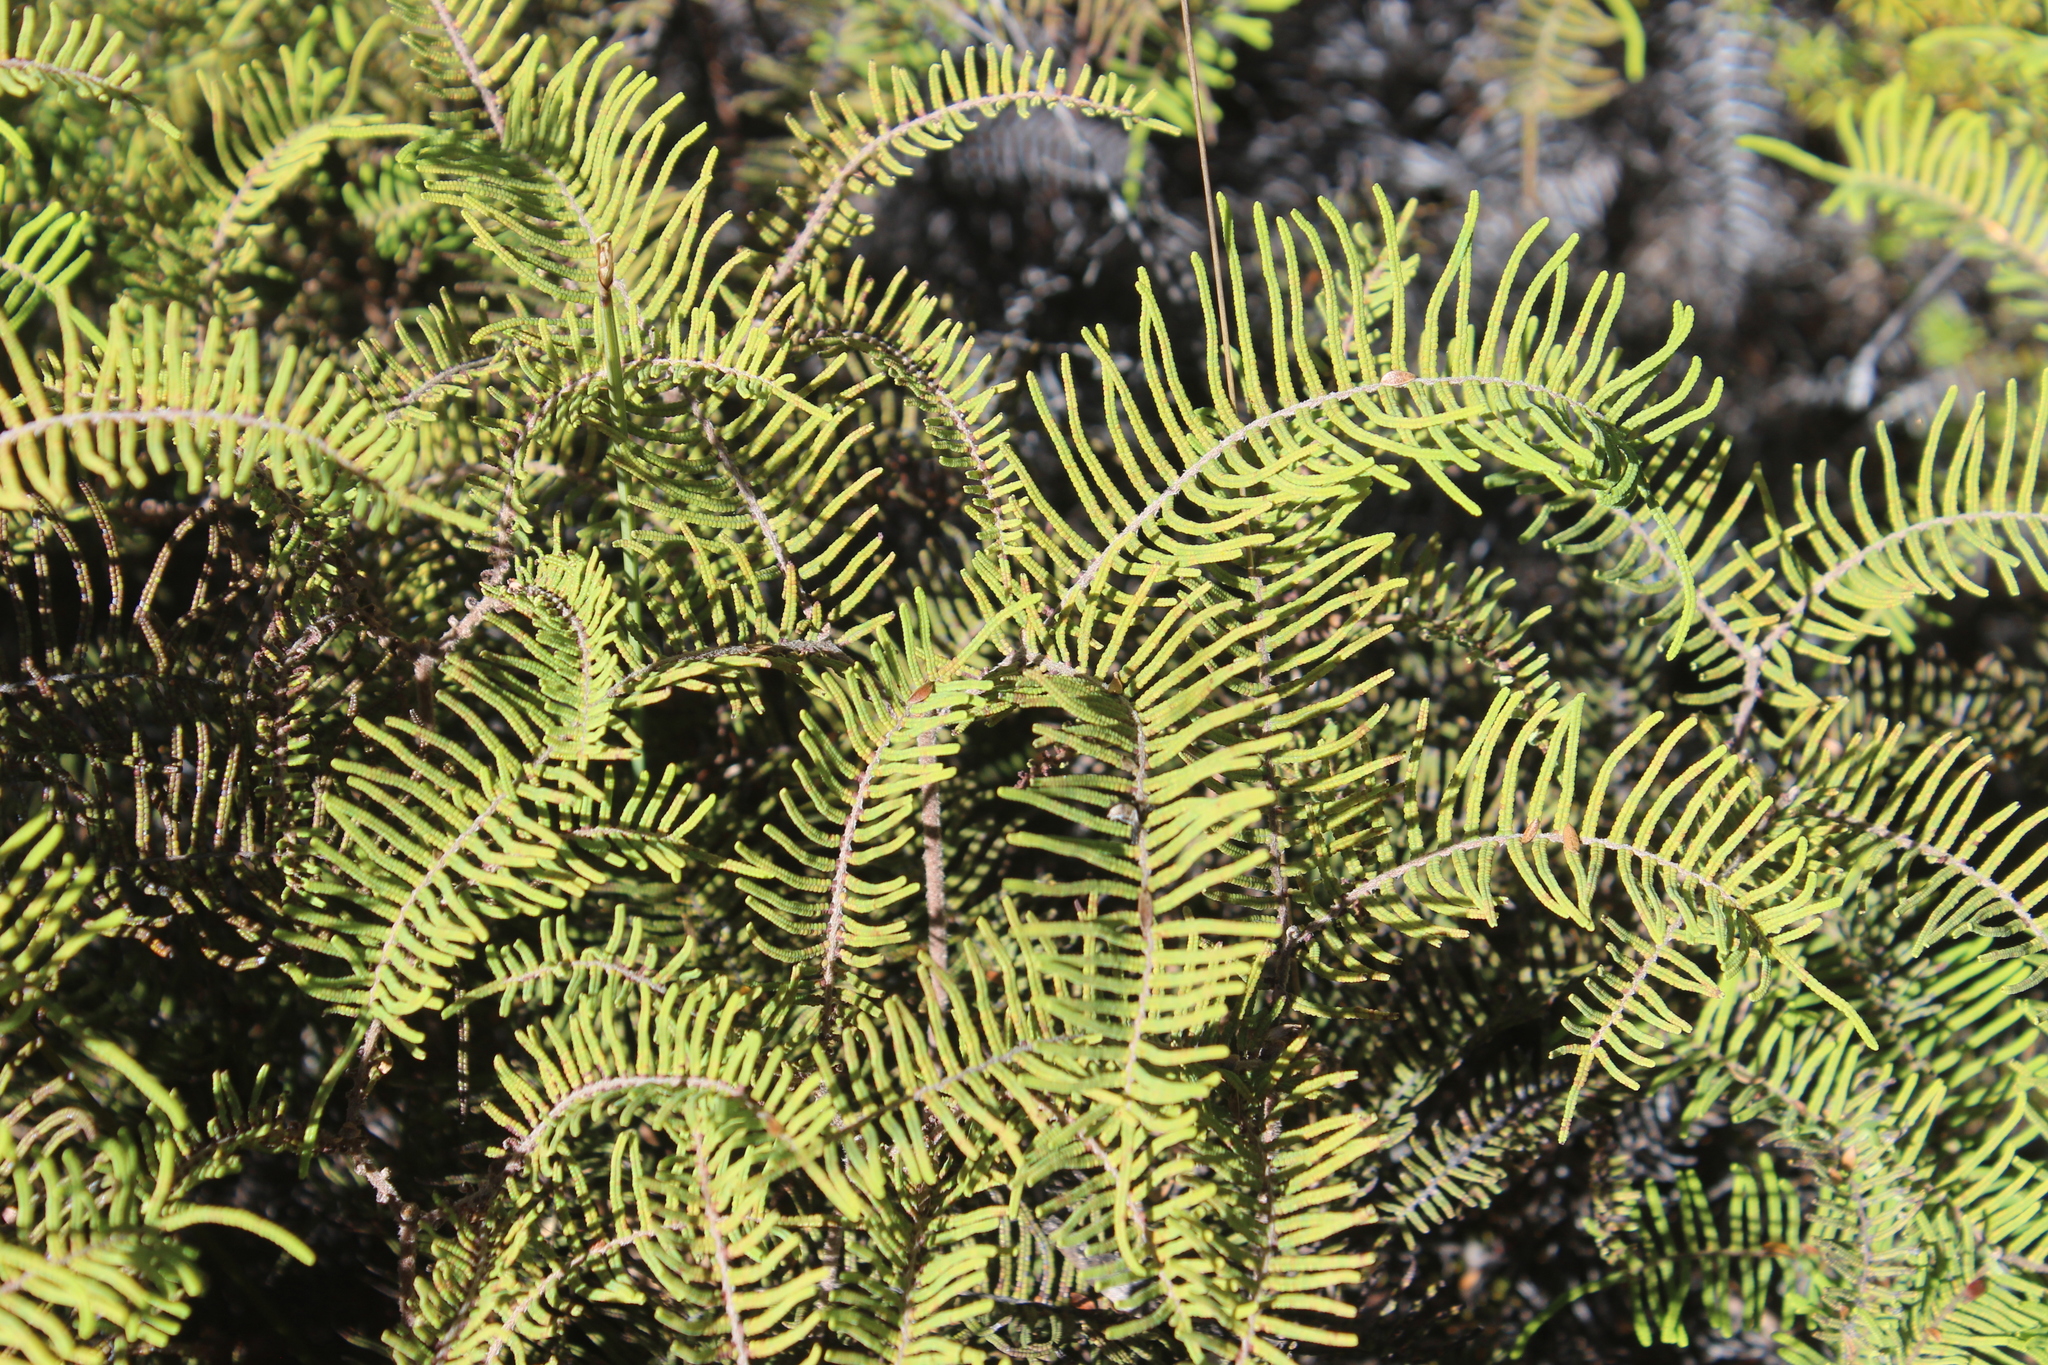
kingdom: Plantae
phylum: Tracheophyta
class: Polypodiopsida
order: Gleicheniales
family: Gleicheniaceae
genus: Gleichenia
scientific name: Gleichenia dicarpa
